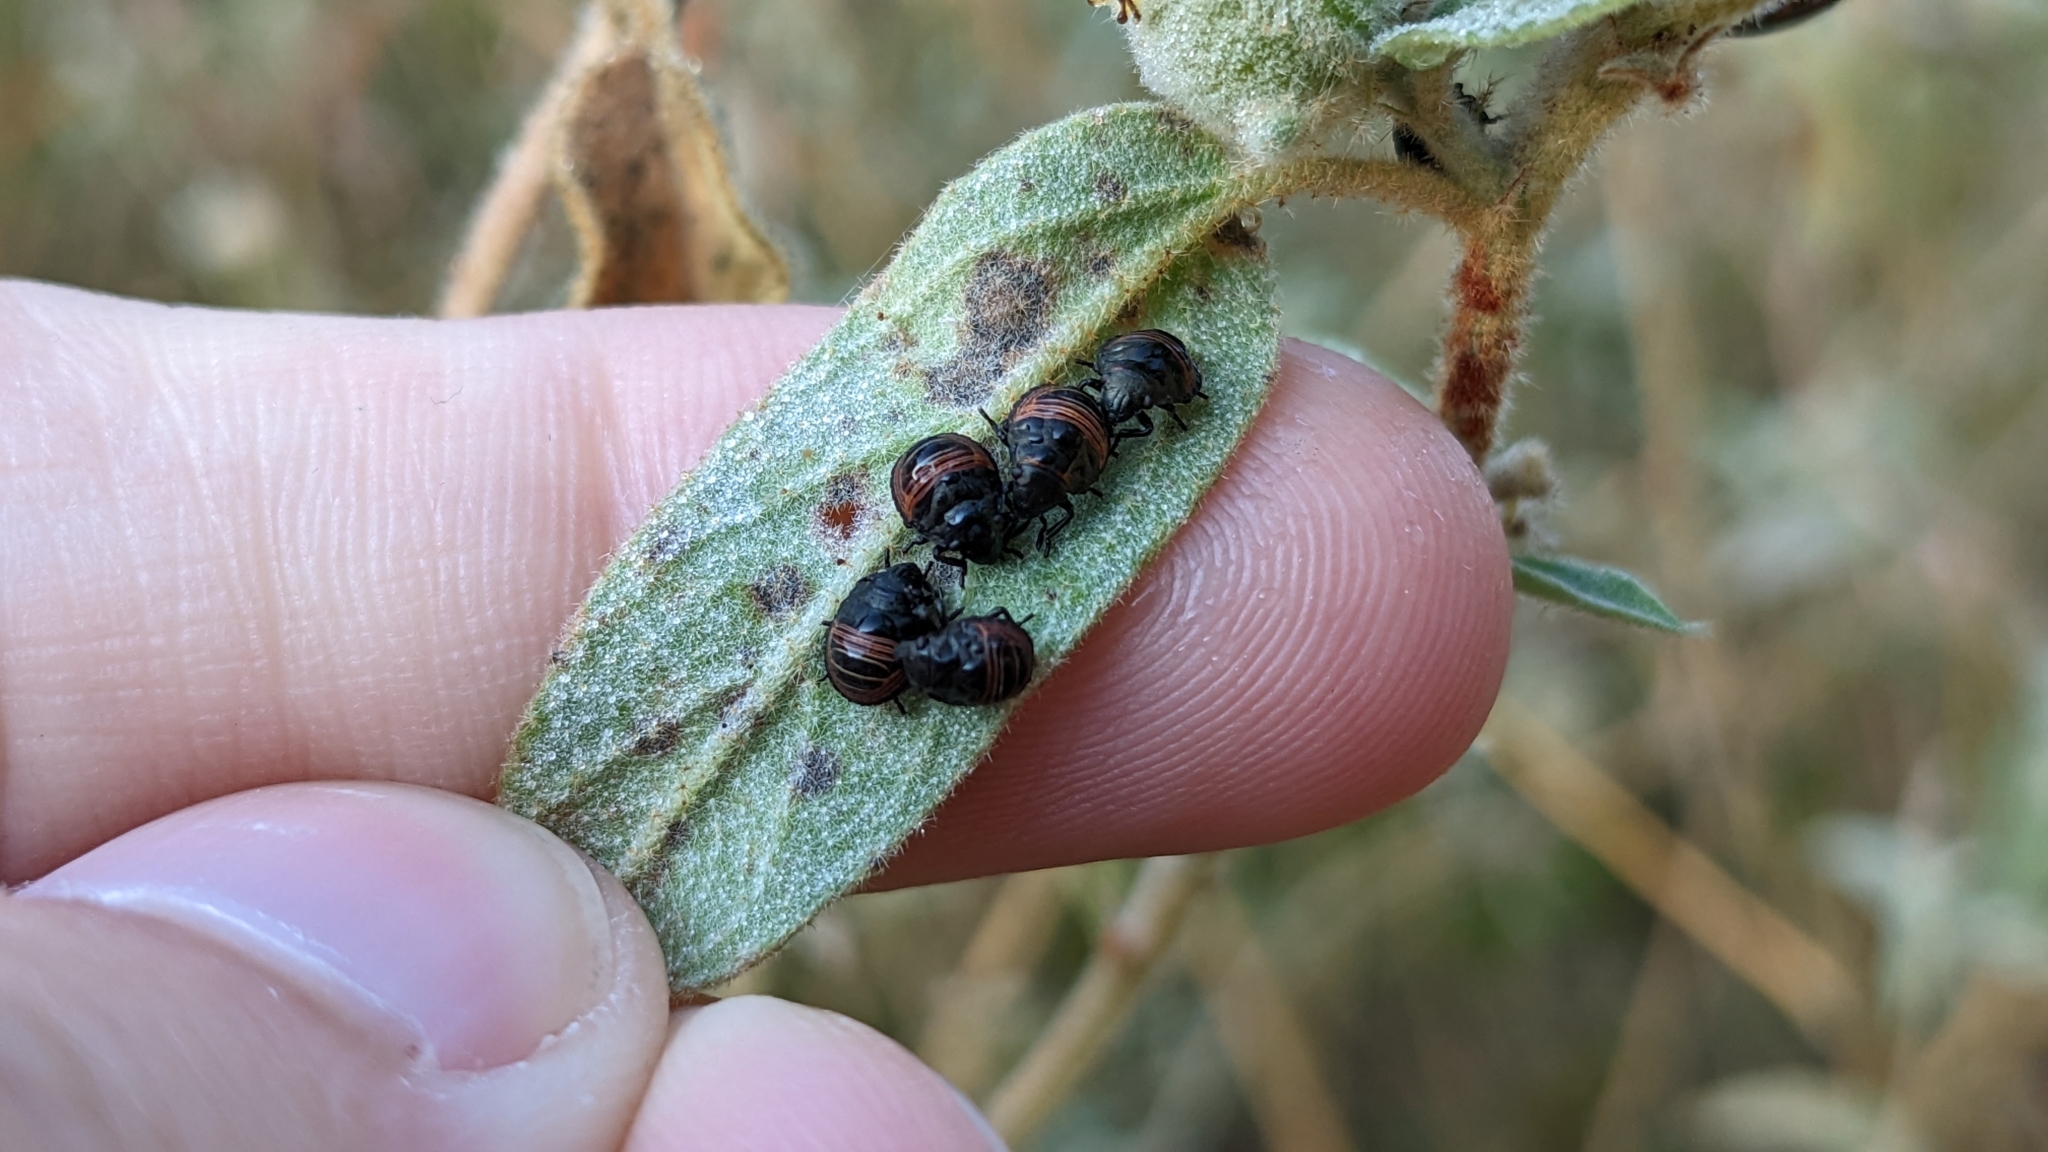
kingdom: Animalia
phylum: Arthropoda
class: Insecta
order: Hemiptera
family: Scutelleridae
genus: Orsilochides
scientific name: Orsilochides guttata
